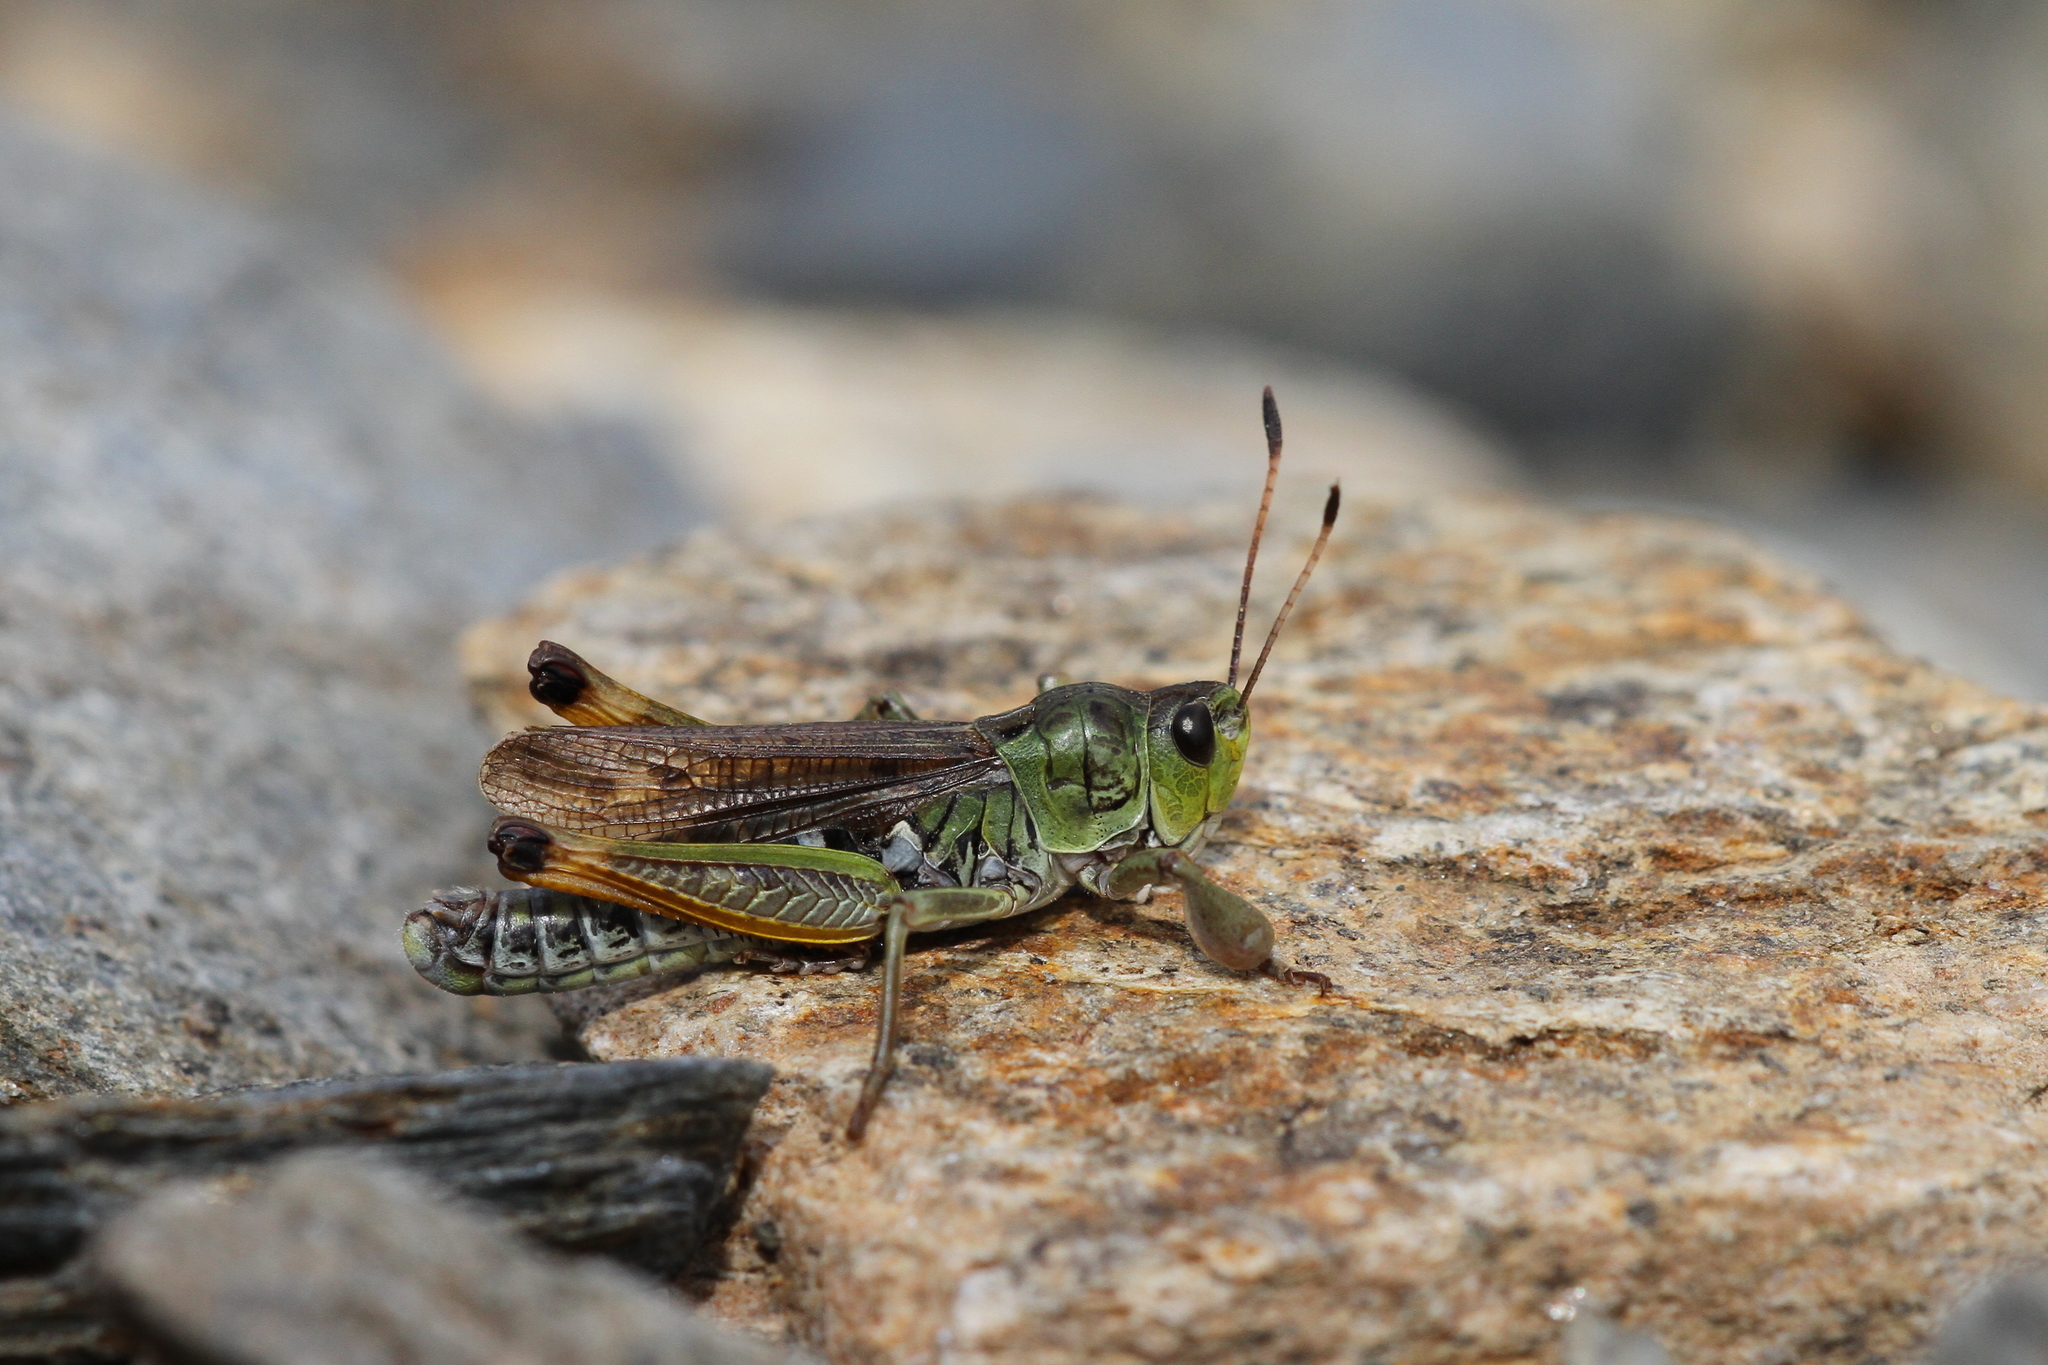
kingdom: Animalia
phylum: Arthropoda
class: Insecta
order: Orthoptera
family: Acrididae
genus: Gomphocerus
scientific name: Gomphocerus sibiricus
